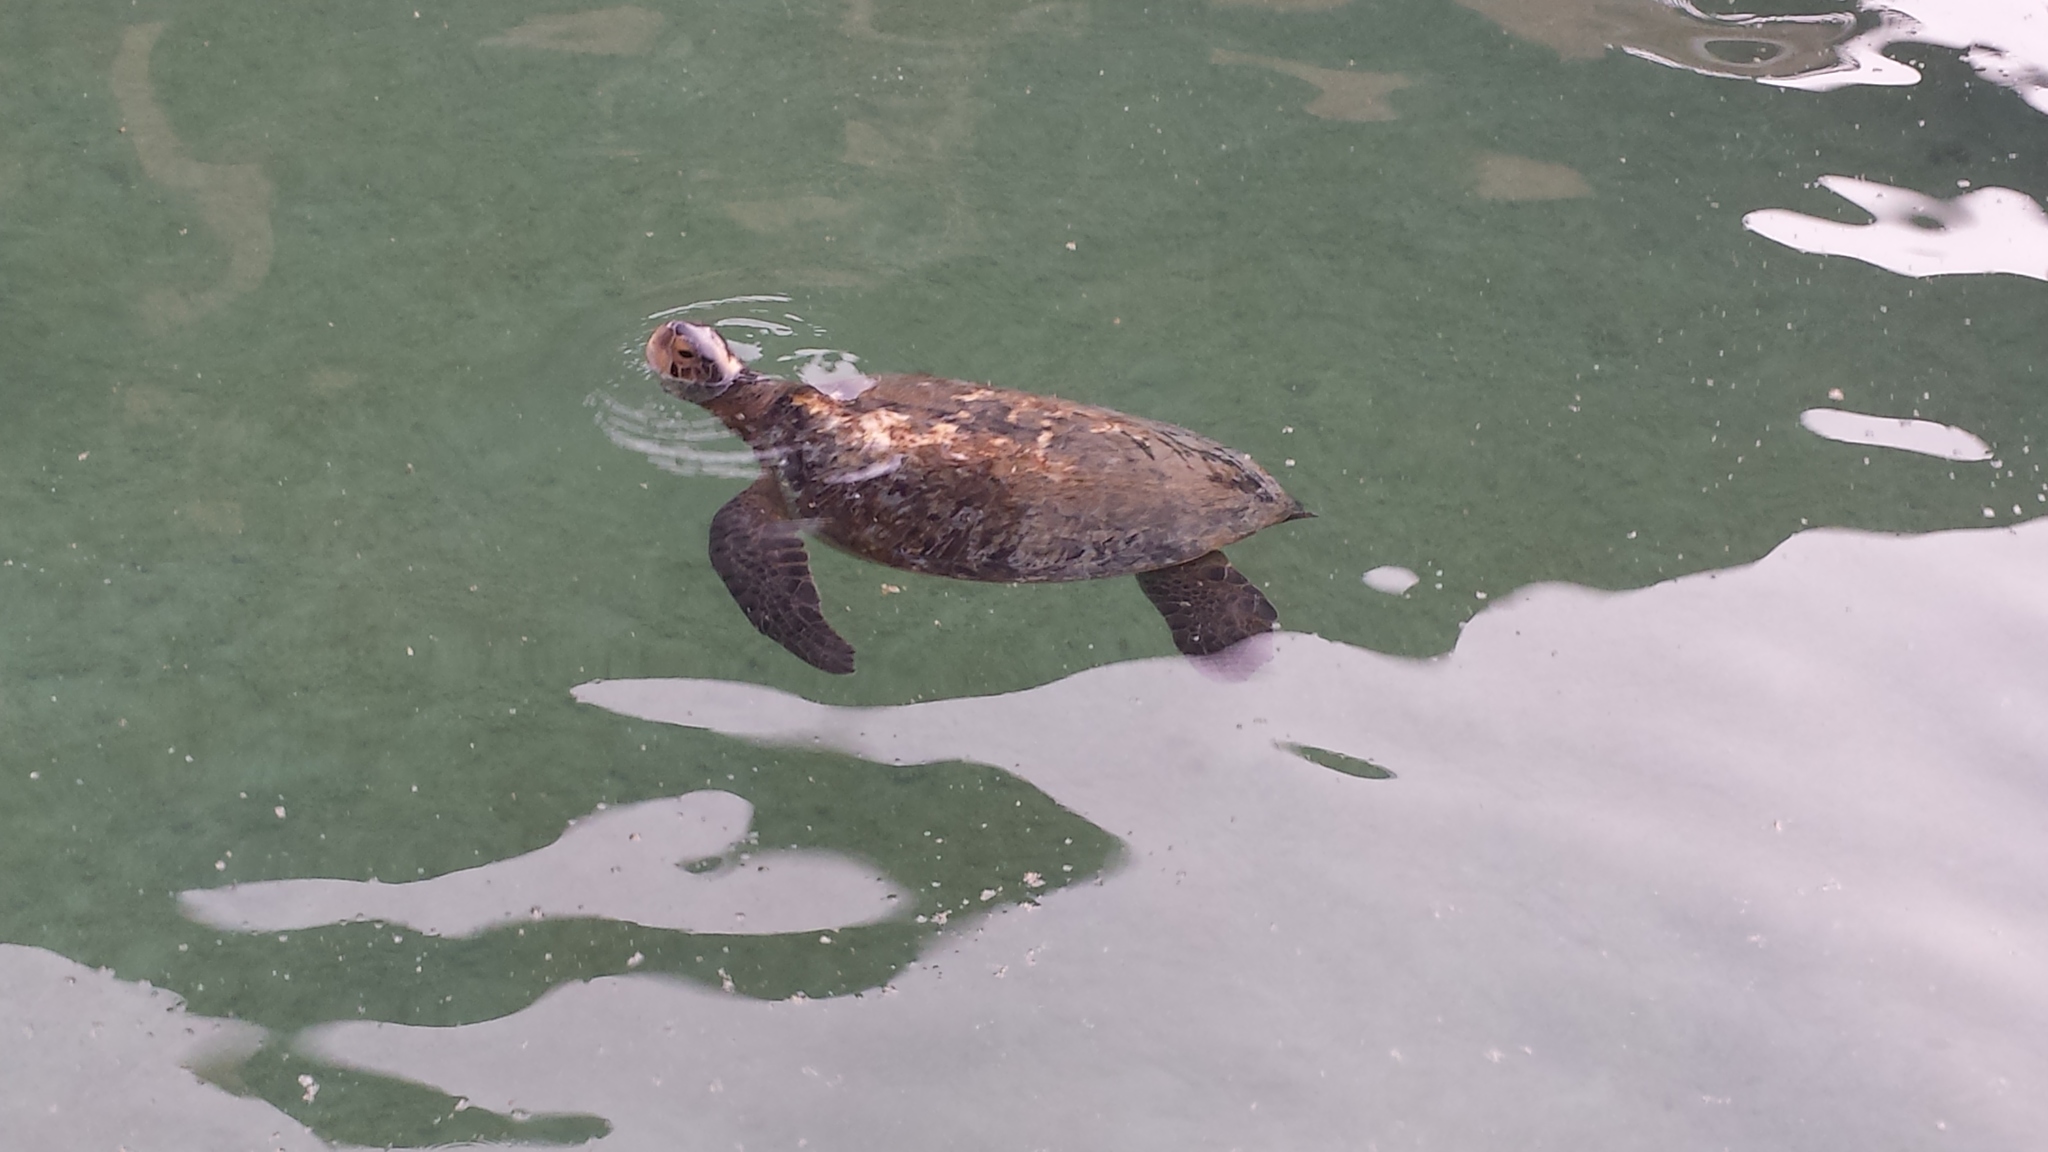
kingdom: Animalia
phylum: Chordata
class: Testudines
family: Cheloniidae
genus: Chelonia
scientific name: Chelonia mydas
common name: Green turtle
